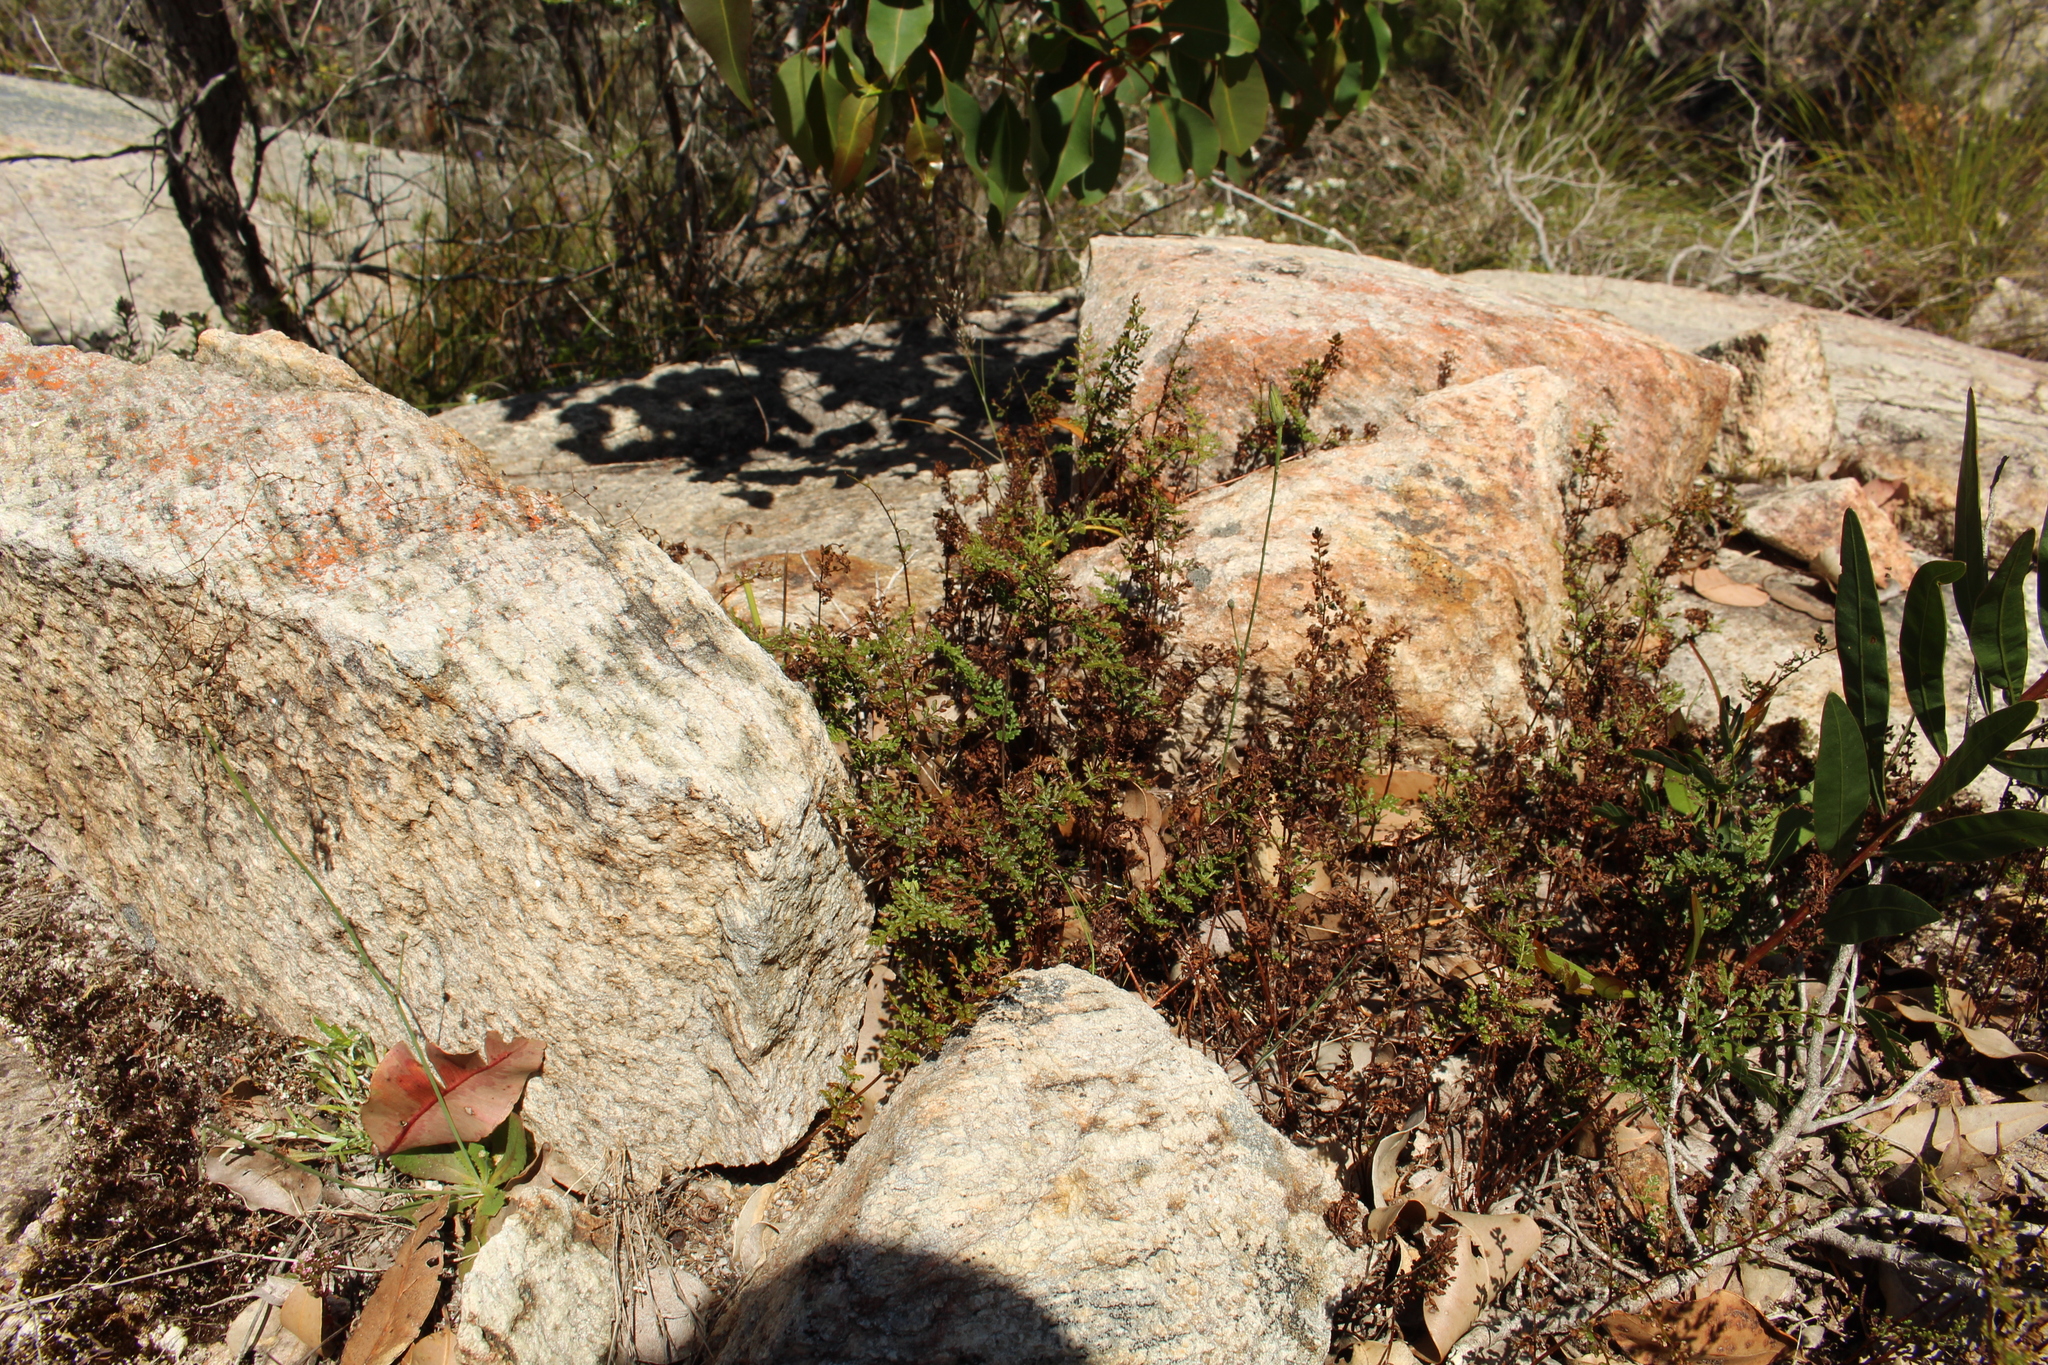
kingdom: Plantae
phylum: Tracheophyta
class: Polypodiopsida
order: Polypodiales
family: Pteridaceae
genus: Cheilanthes
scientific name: Cheilanthes austrotenuifolia
